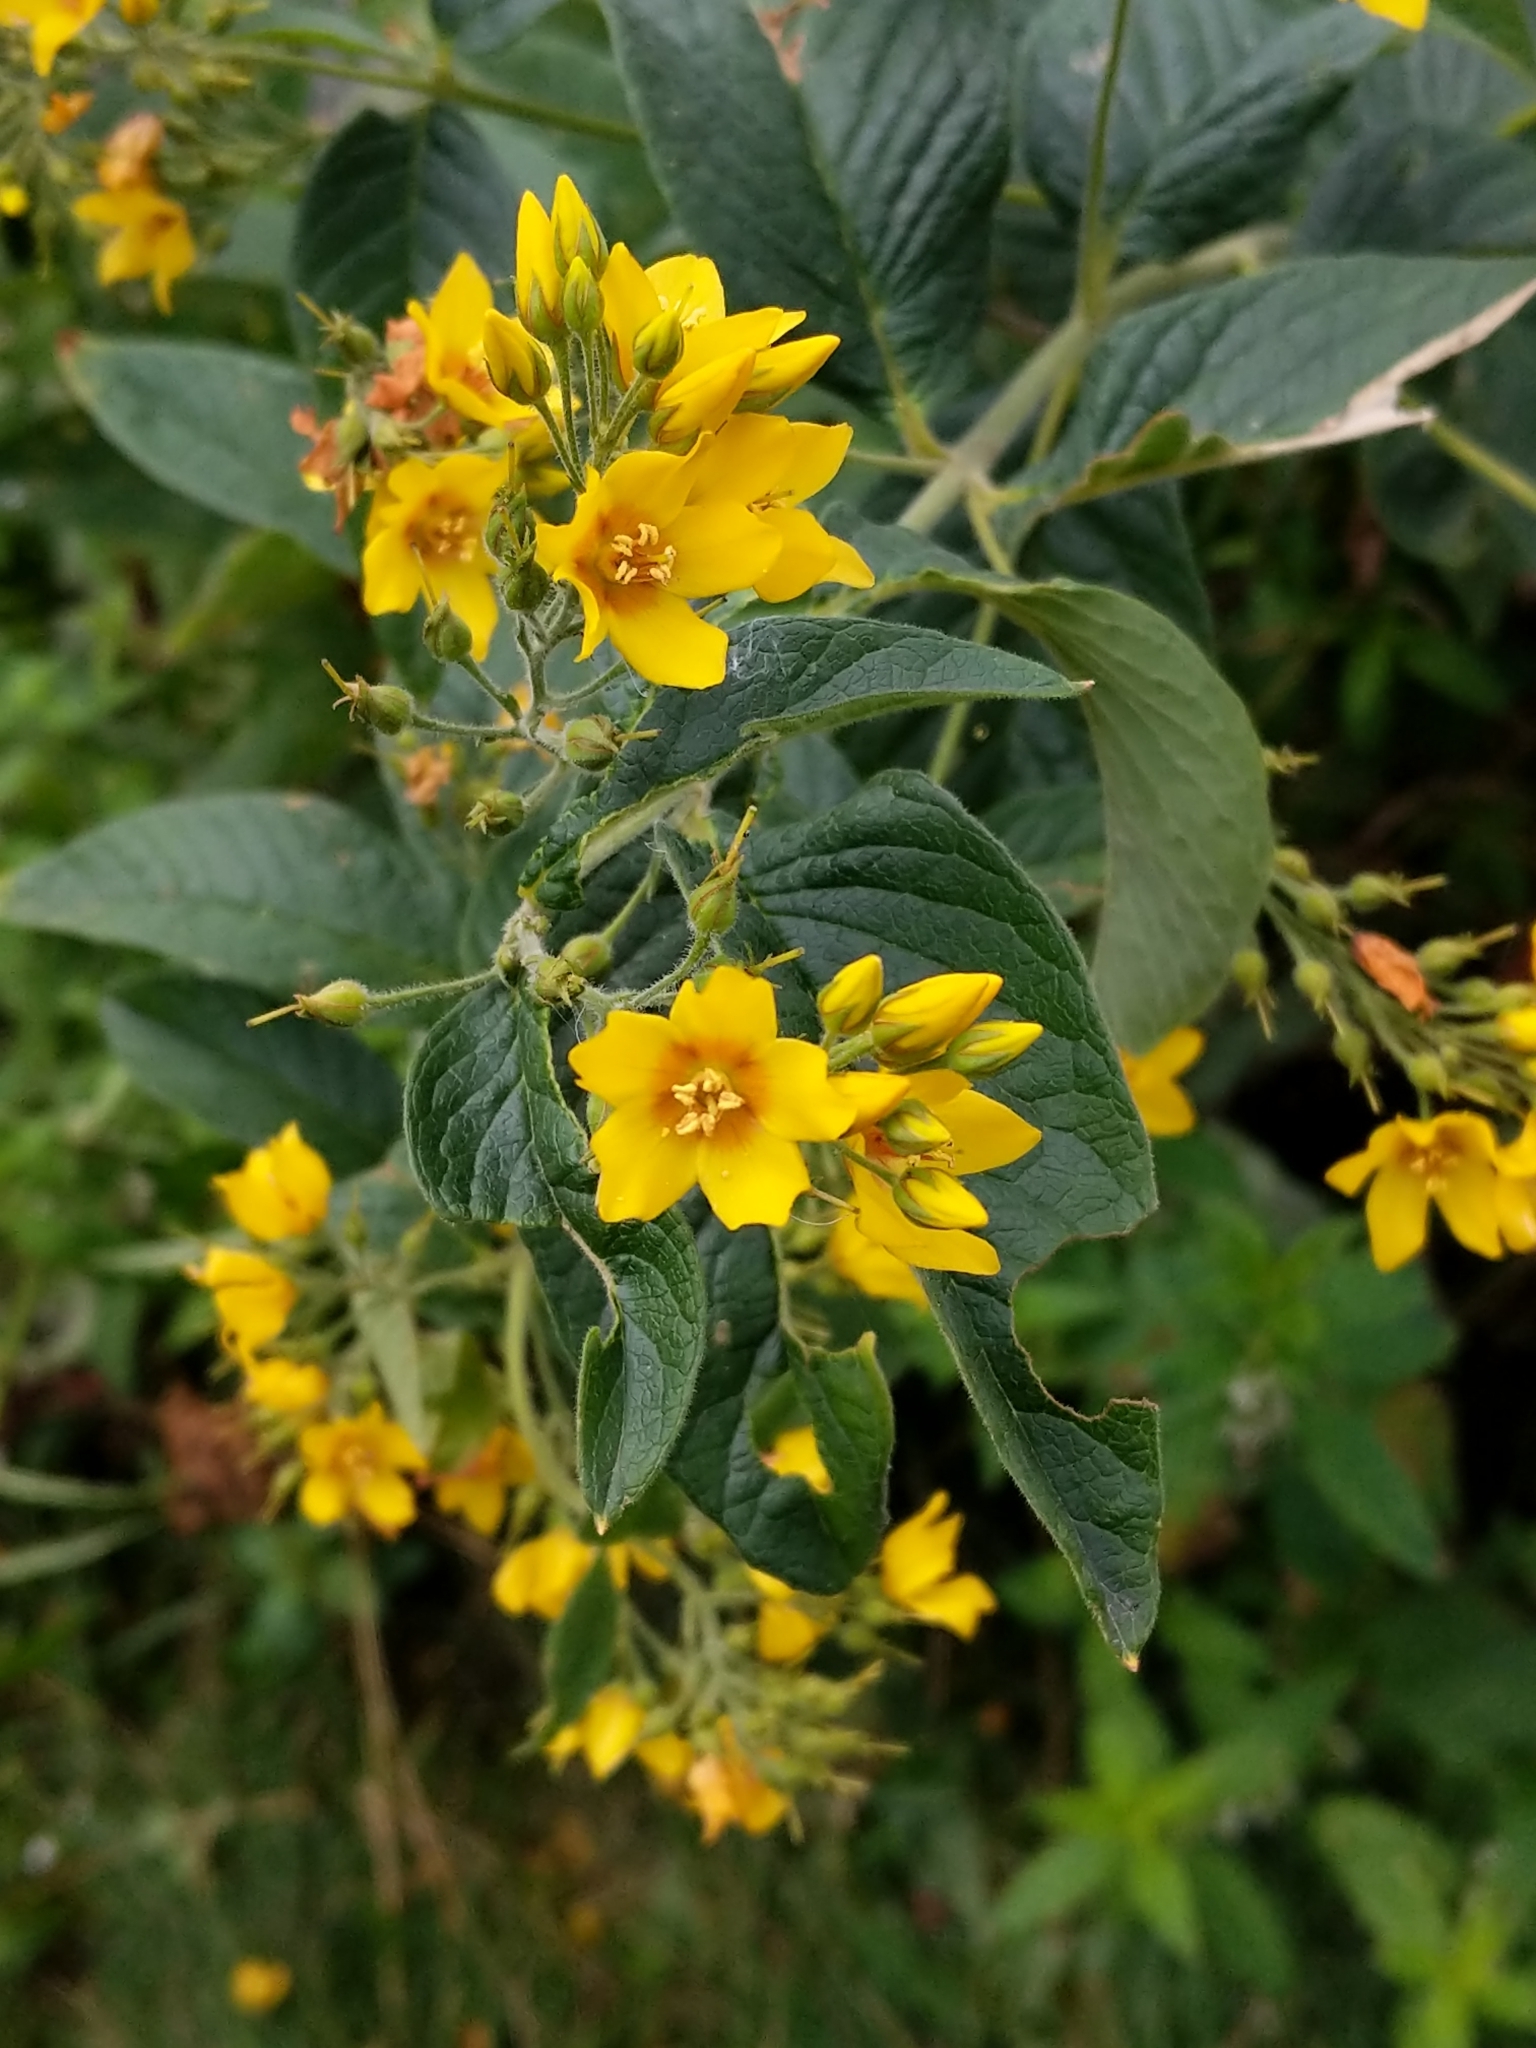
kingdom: Plantae
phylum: Tracheophyta
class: Magnoliopsida
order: Ericales
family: Primulaceae
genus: Lysimachia
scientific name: Lysimachia vulgaris
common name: Yellow loosestrife
